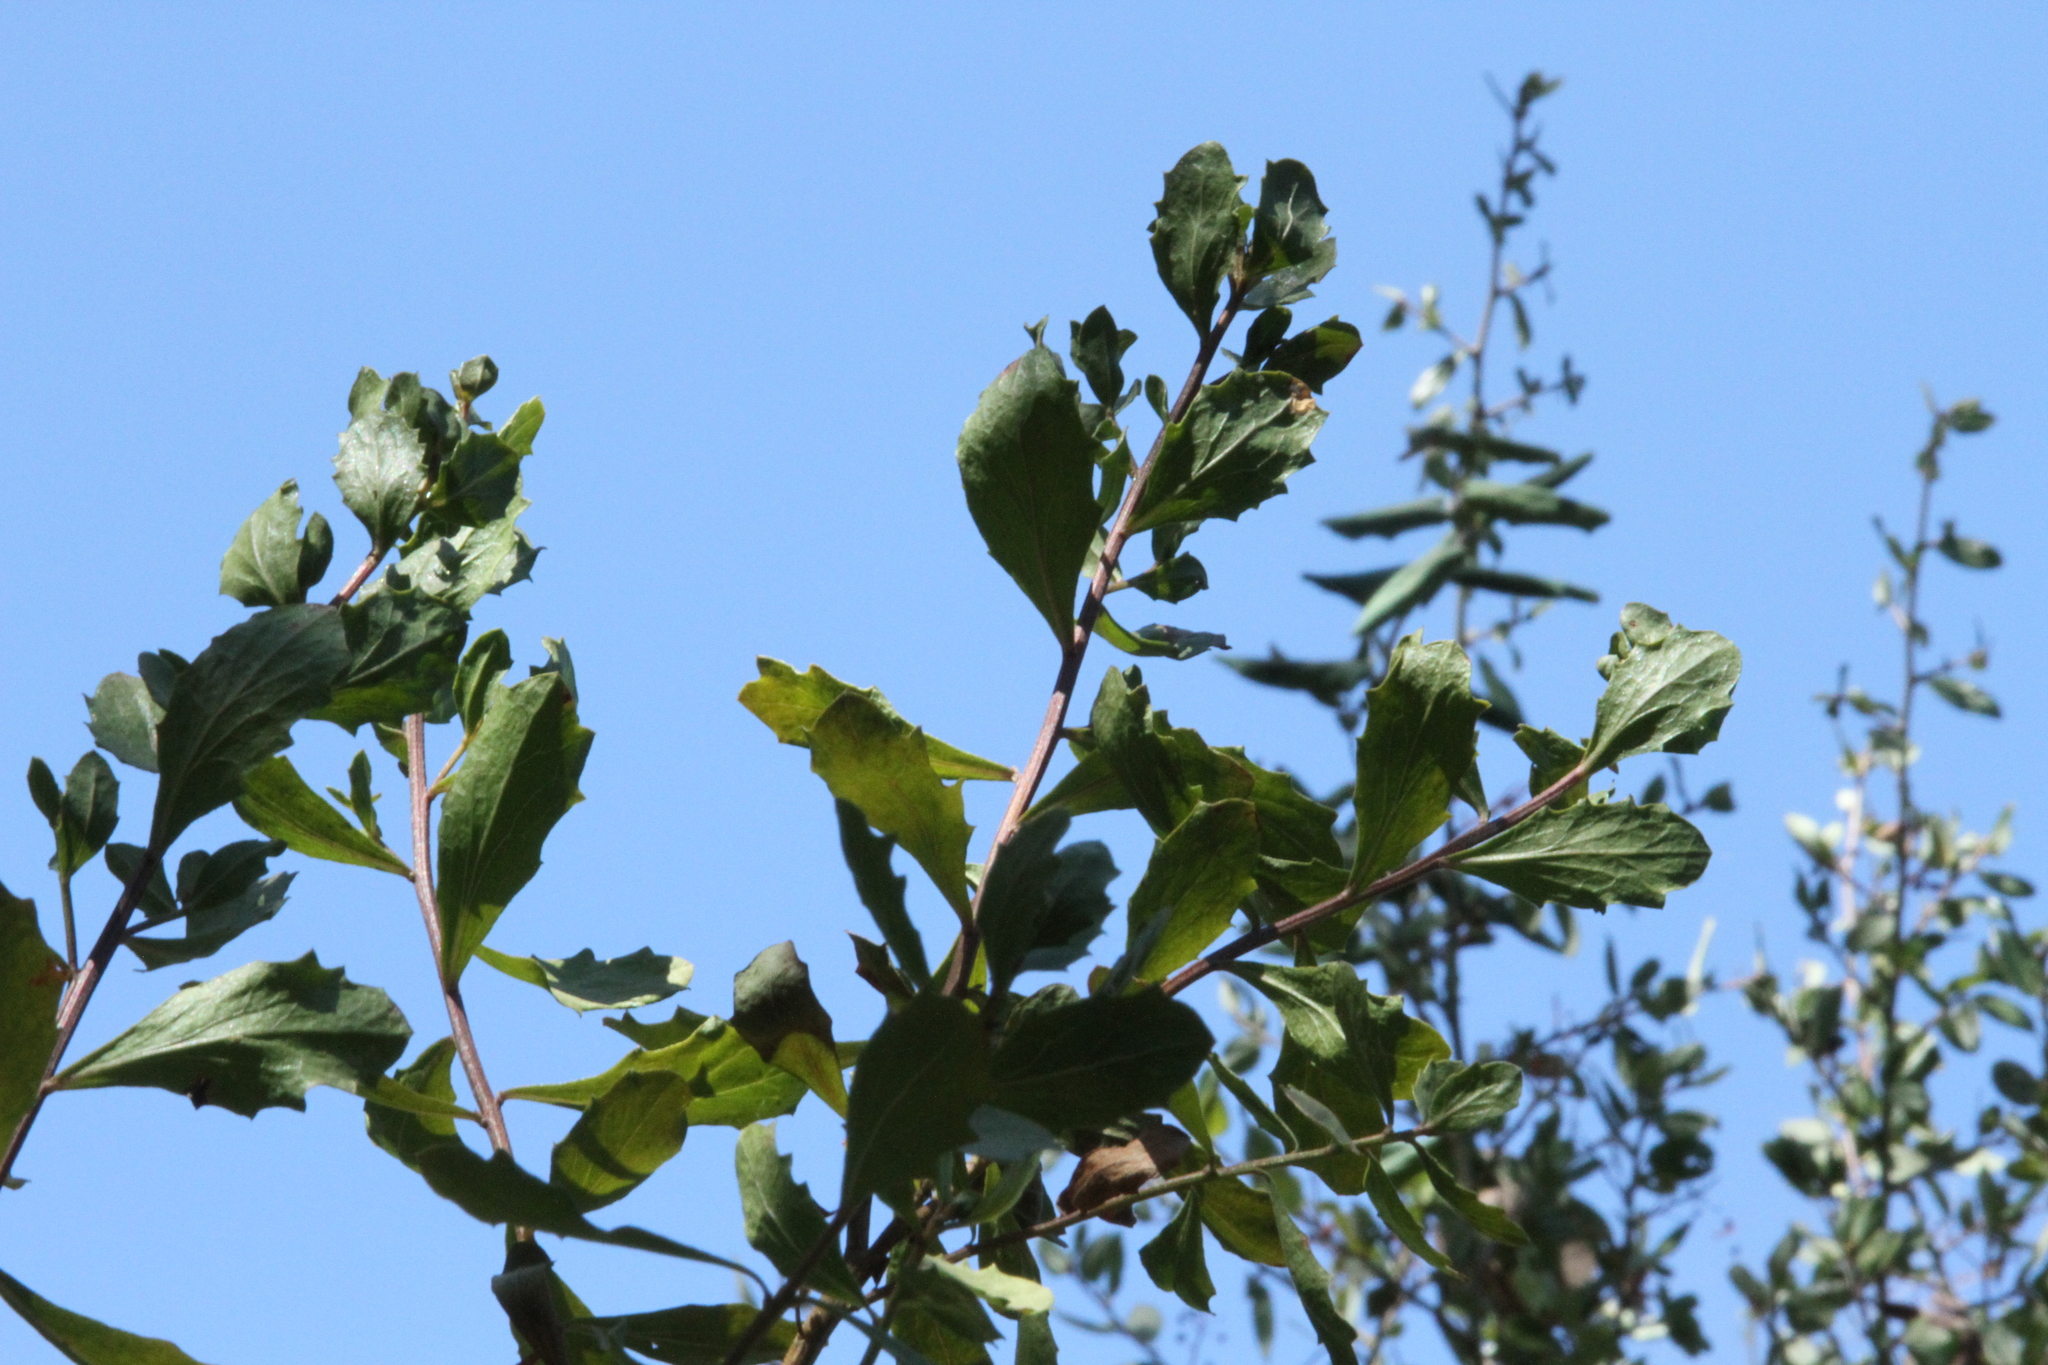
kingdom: Plantae
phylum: Tracheophyta
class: Magnoliopsida
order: Asterales
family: Asteraceae
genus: Baccharis
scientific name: Baccharis pilularis
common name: Coyotebrush
